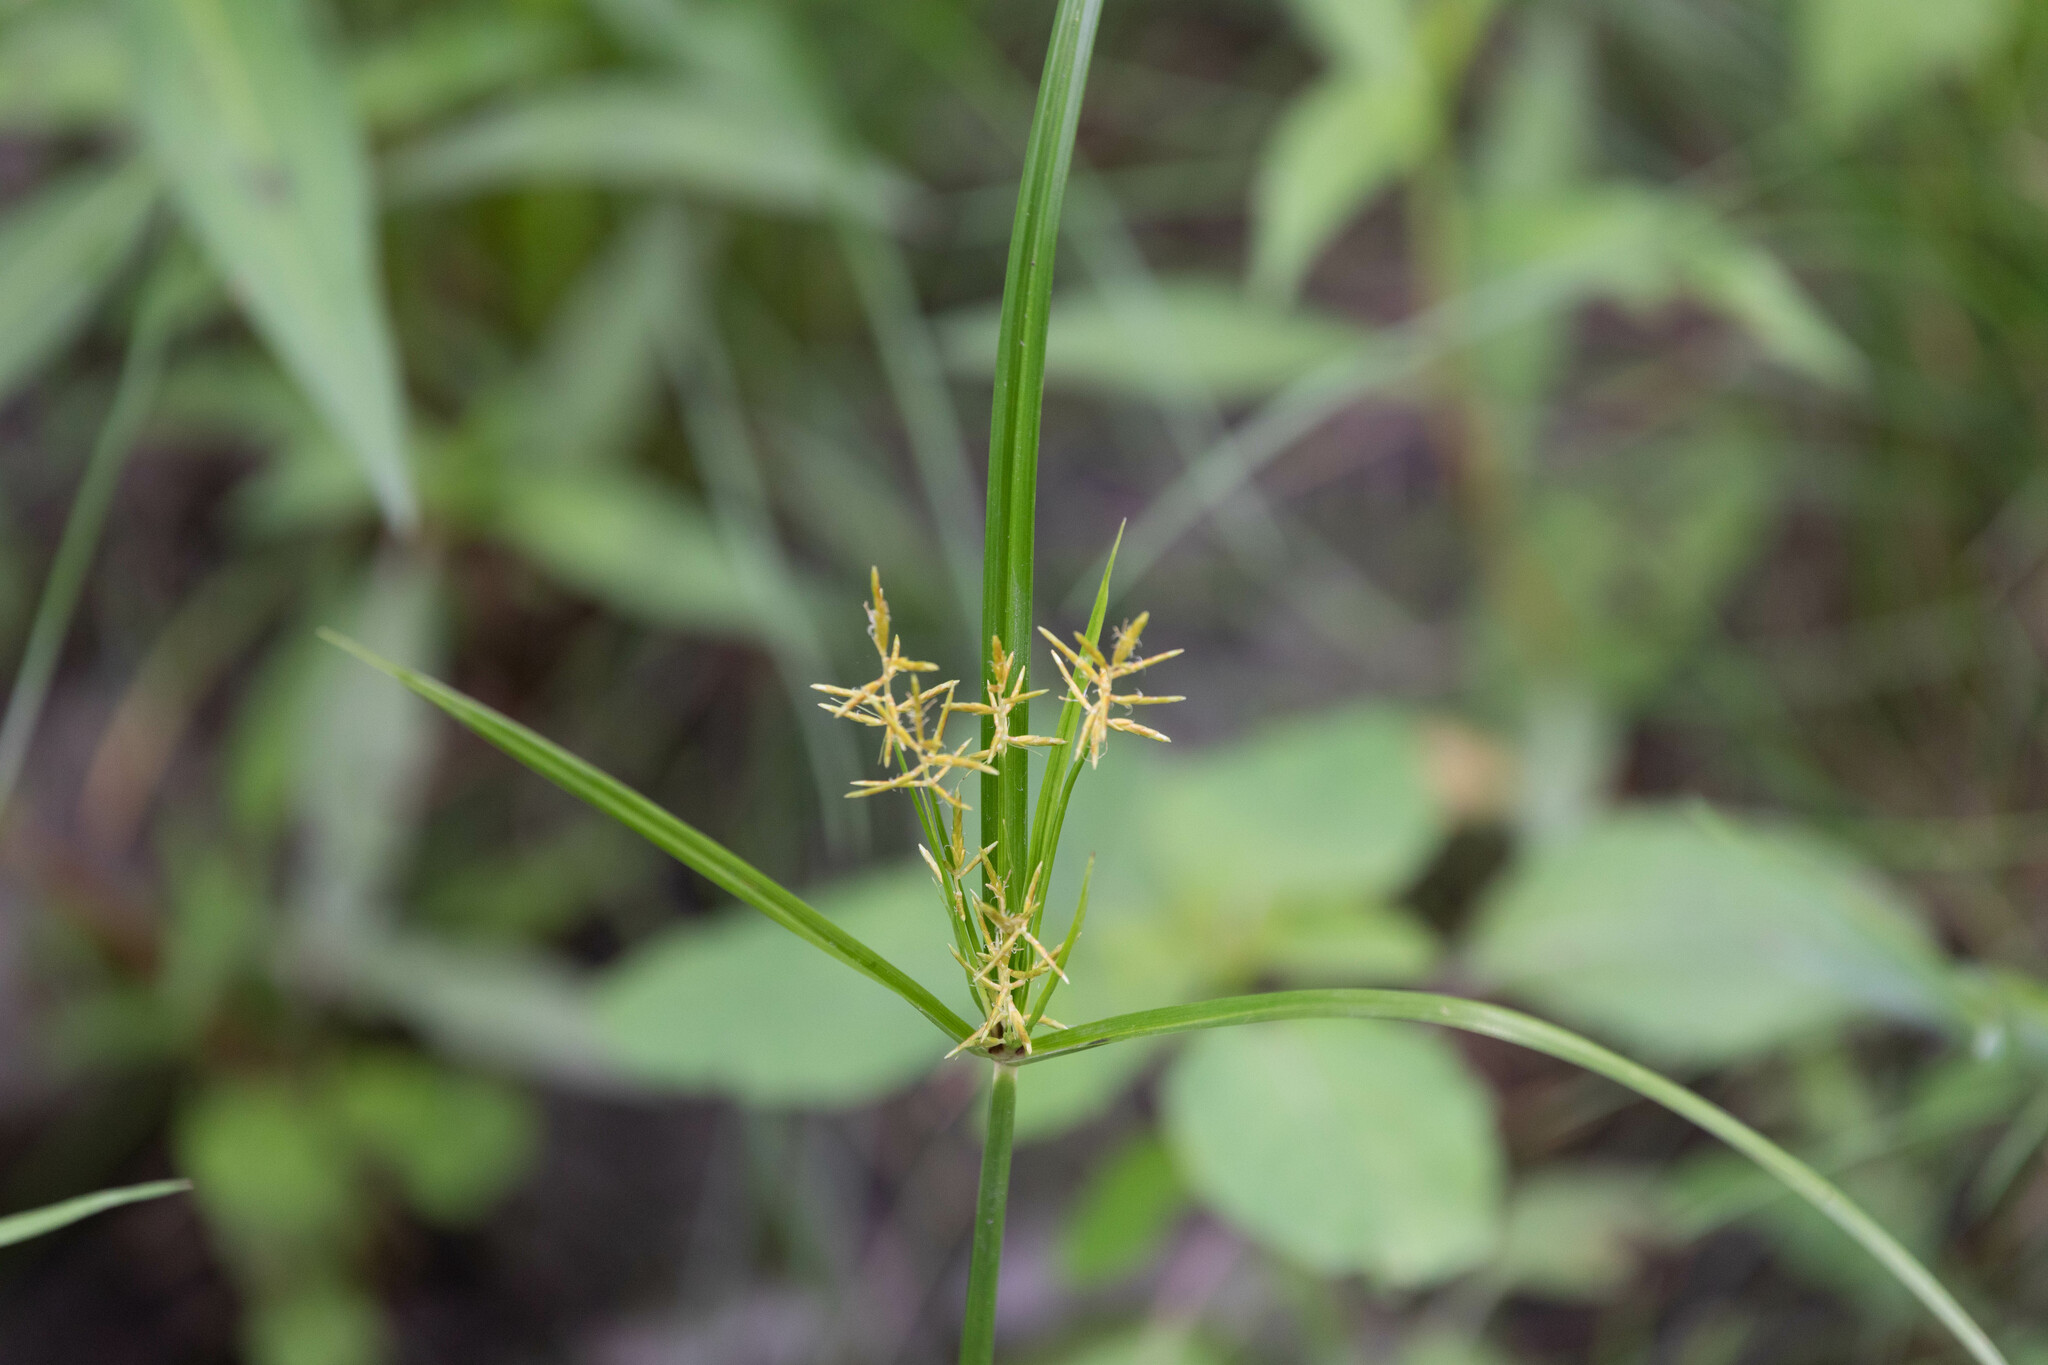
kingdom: Plantae
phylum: Tracheophyta
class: Liliopsida
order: Poales
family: Cyperaceae
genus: Cyperus
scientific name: Cyperus esculentus
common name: Yellow nutsedge
